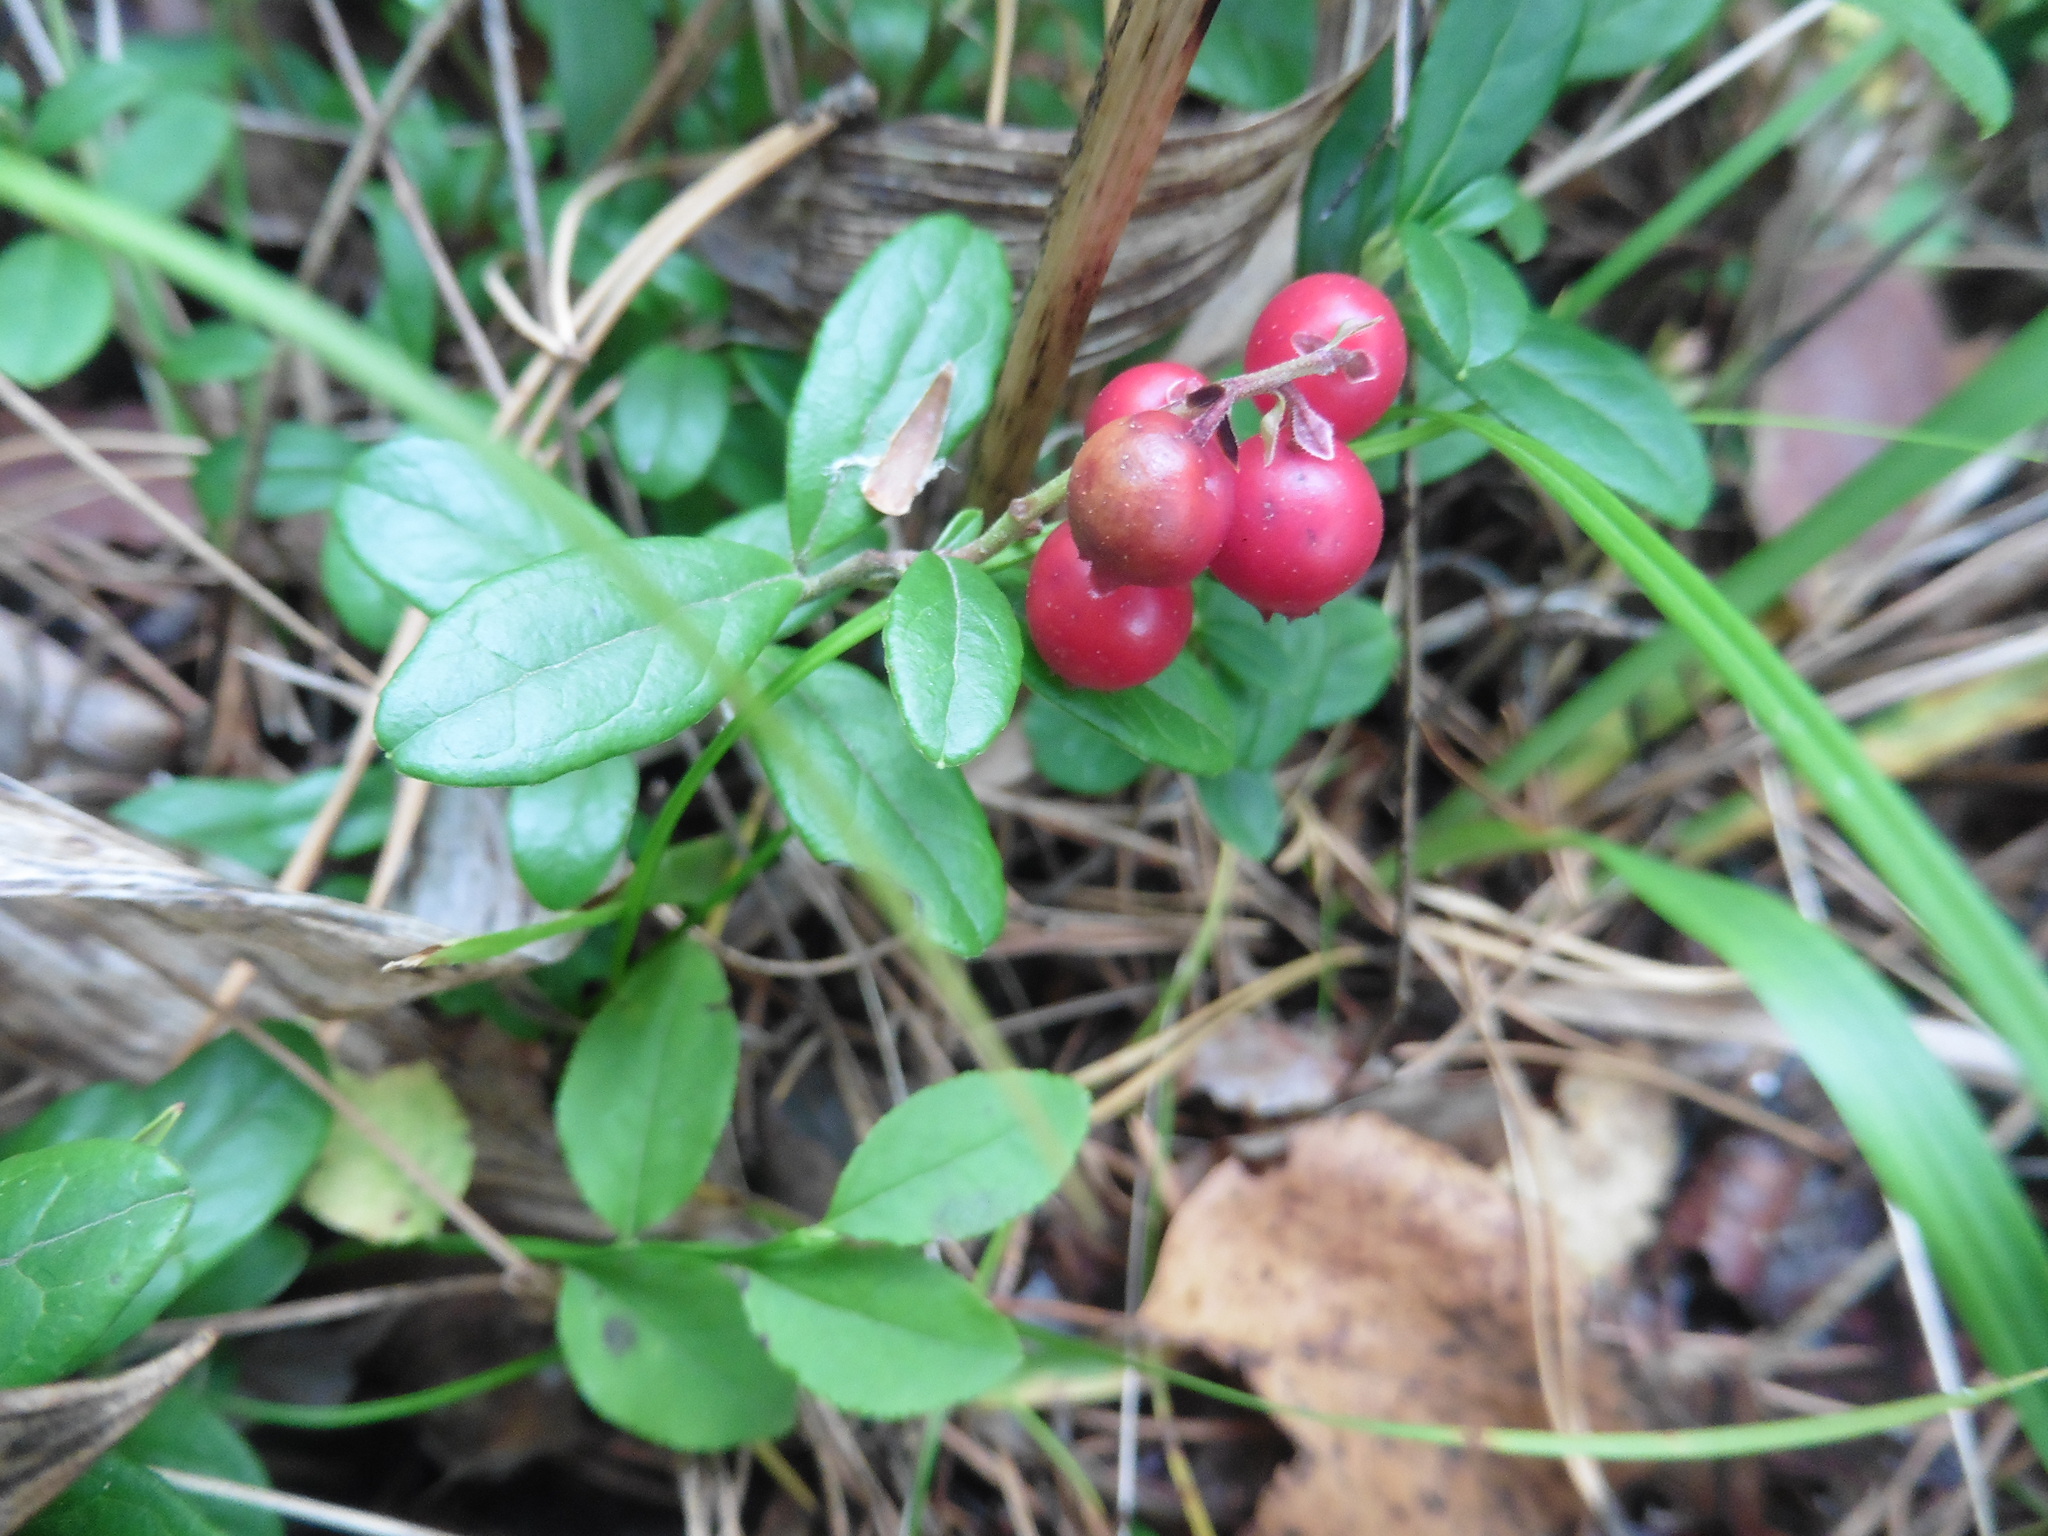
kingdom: Plantae
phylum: Tracheophyta
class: Magnoliopsida
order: Ericales
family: Ericaceae
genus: Vaccinium
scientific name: Vaccinium vitis-idaea
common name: Cowberry
